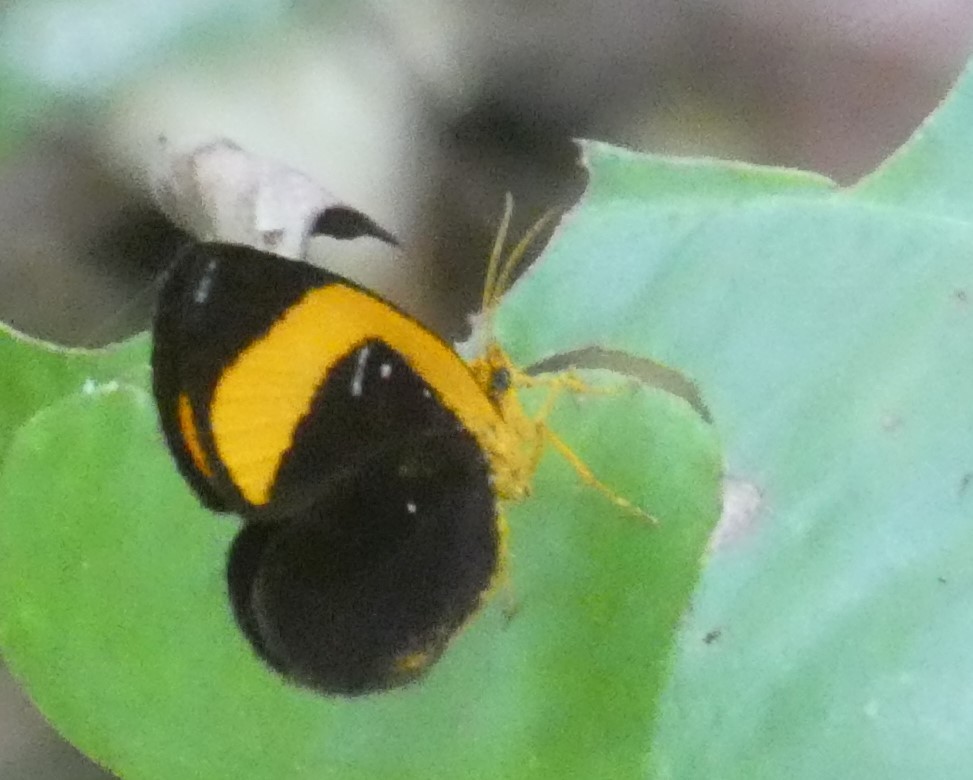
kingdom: Animalia
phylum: Arthropoda
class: Insecta
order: Lepidoptera
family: Callidulidae
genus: Callidula
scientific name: Callidula sobah
